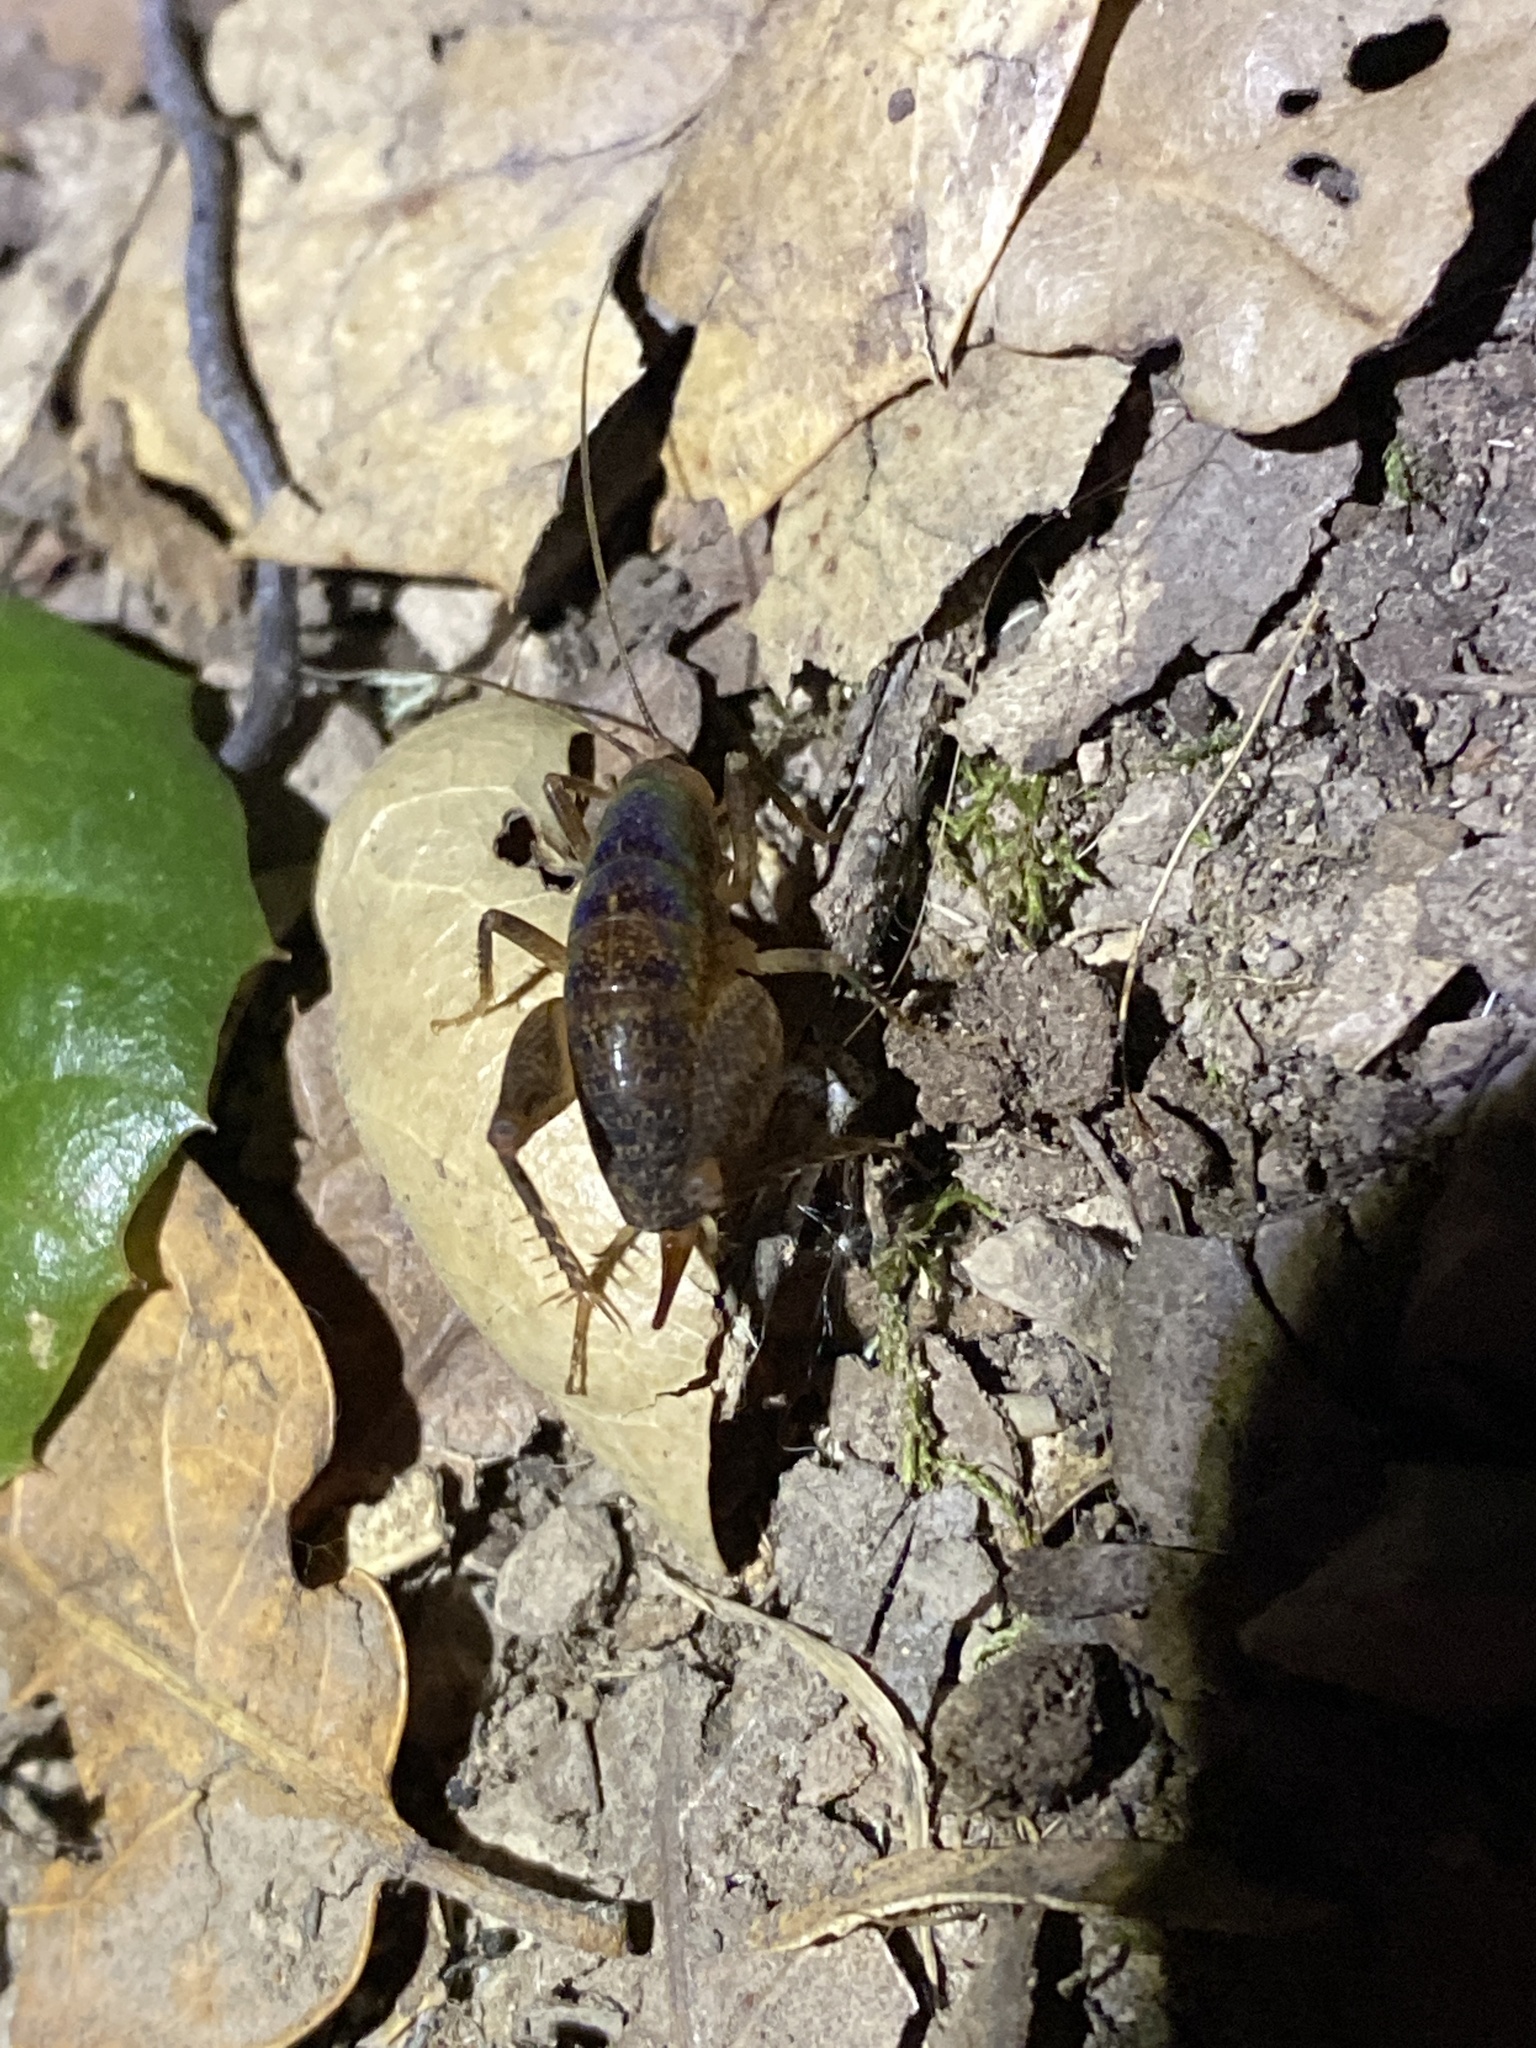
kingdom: Animalia
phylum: Arthropoda
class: Insecta
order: Orthoptera
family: Rhaphidophoridae
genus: Pristoceuthophilus
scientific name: Pristoceuthophilus
